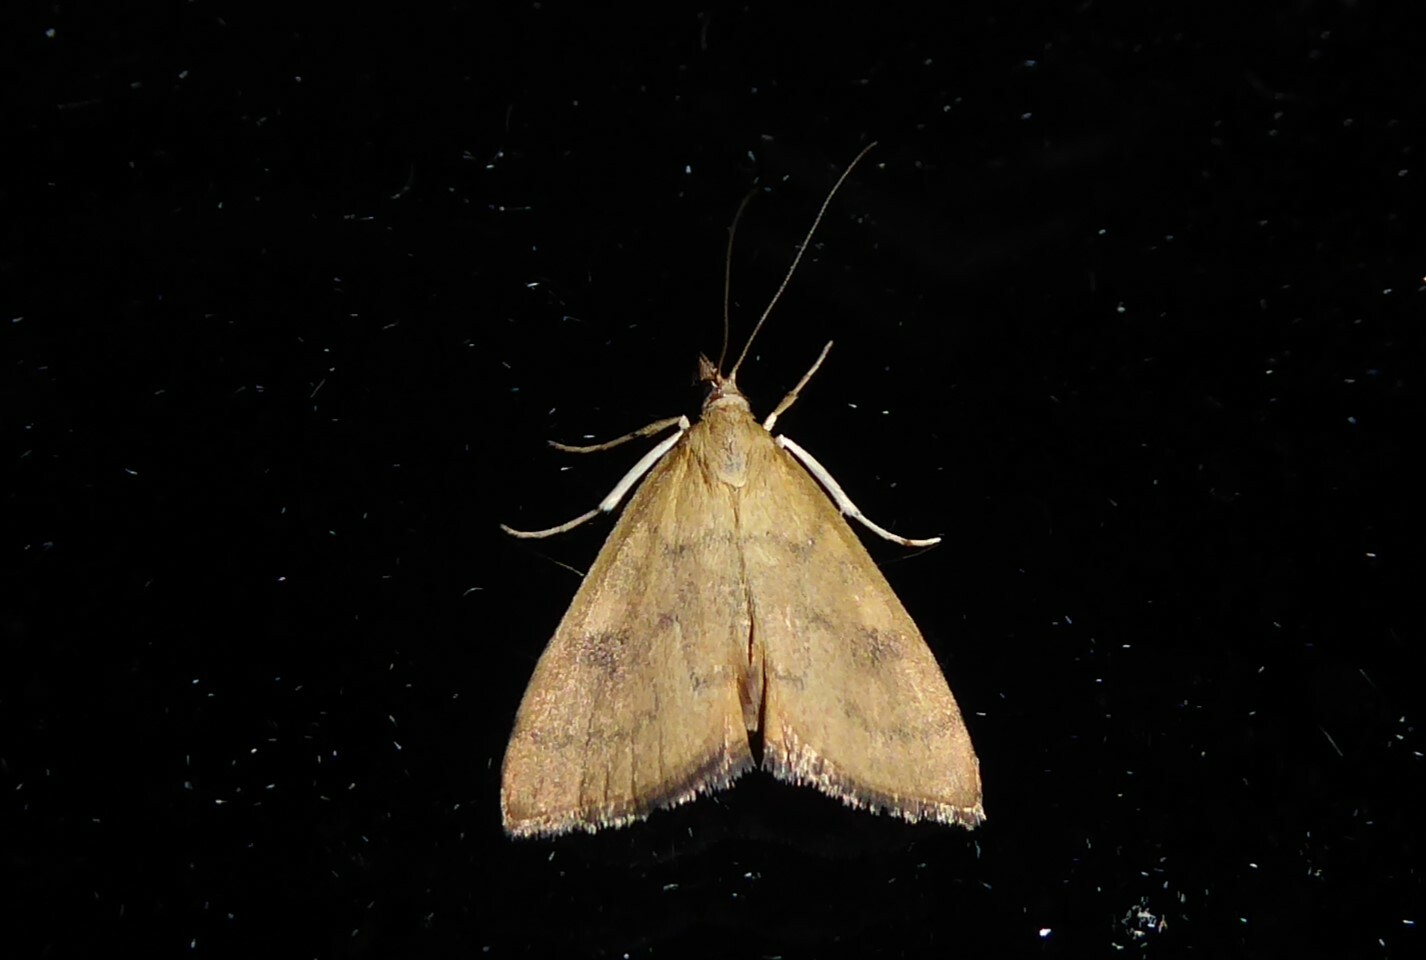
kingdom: Animalia
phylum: Arthropoda
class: Insecta
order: Lepidoptera
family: Crambidae
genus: Udea
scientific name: Udea Mnesictena flavidalis
